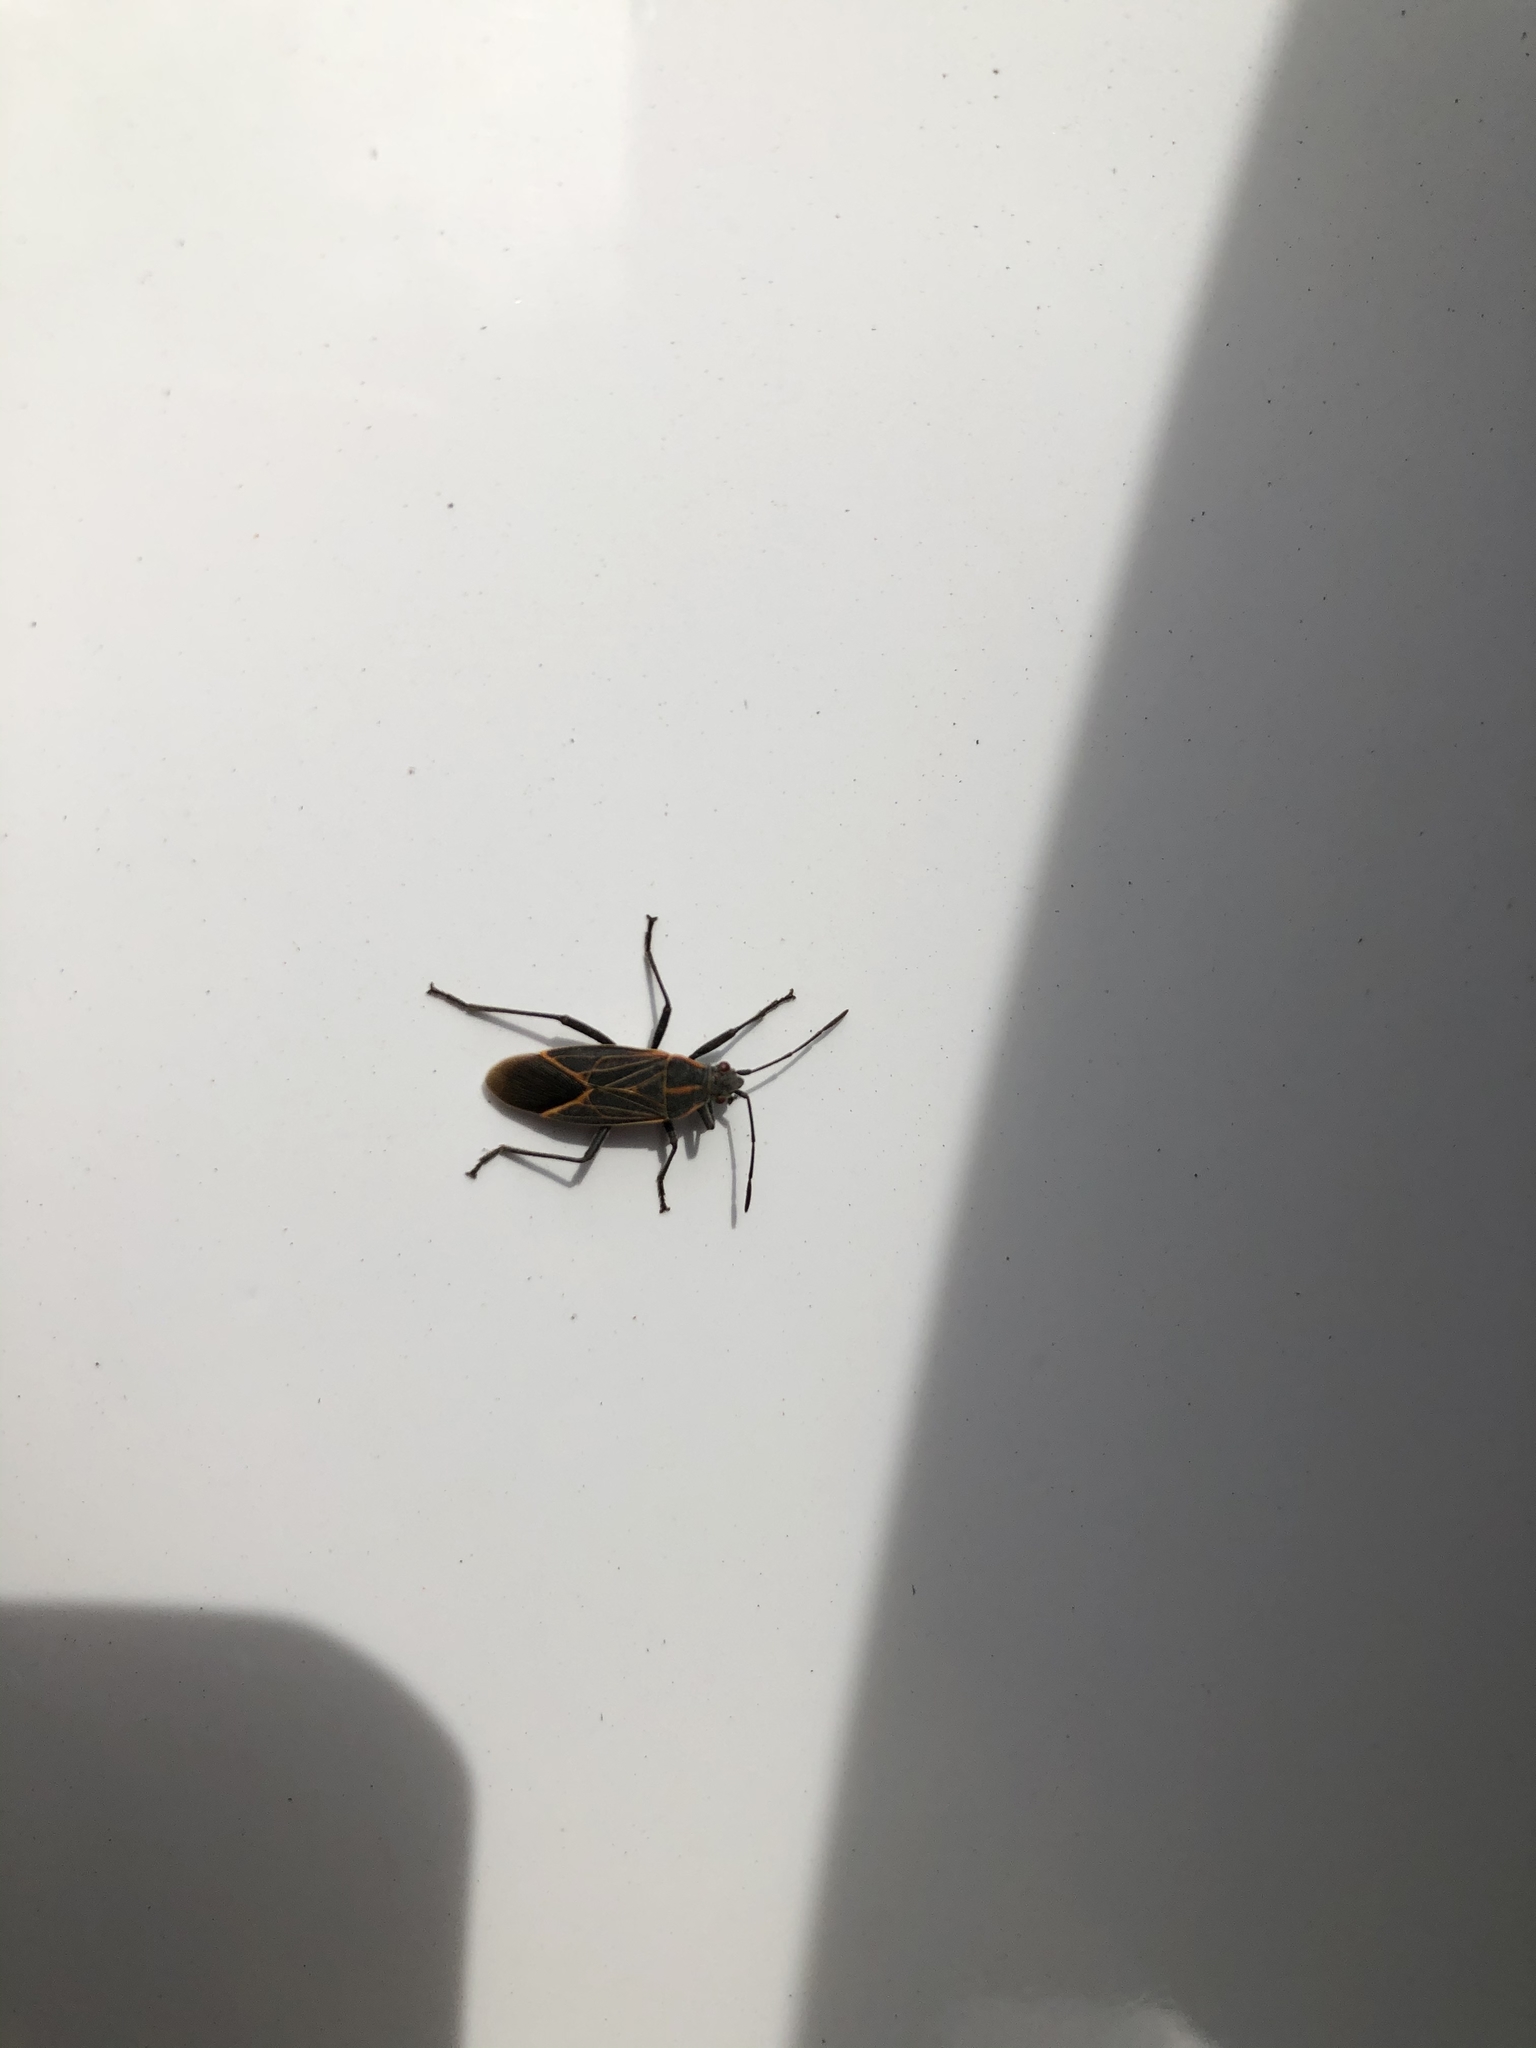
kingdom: Animalia
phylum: Arthropoda
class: Insecta
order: Hemiptera
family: Rhopalidae
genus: Boisea
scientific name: Boisea rubrolineata
